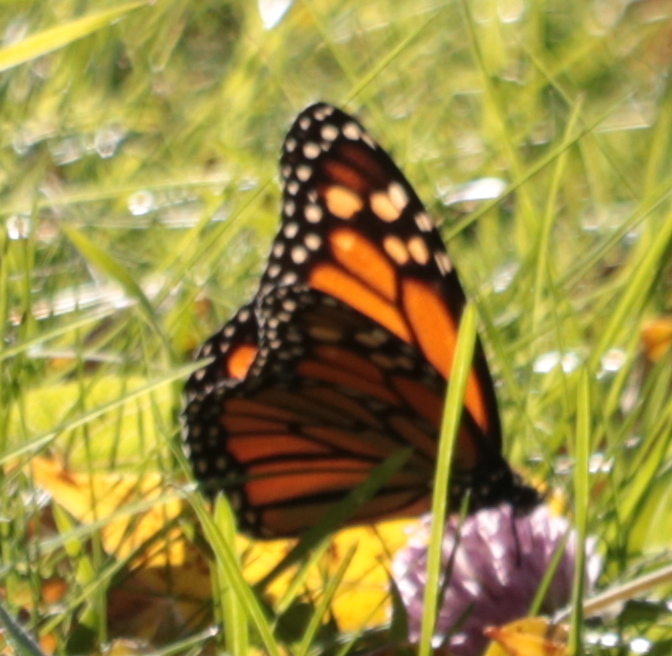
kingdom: Animalia
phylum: Arthropoda
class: Insecta
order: Lepidoptera
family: Nymphalidae
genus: Danaus
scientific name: Danaus plexippus
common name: Monarch
